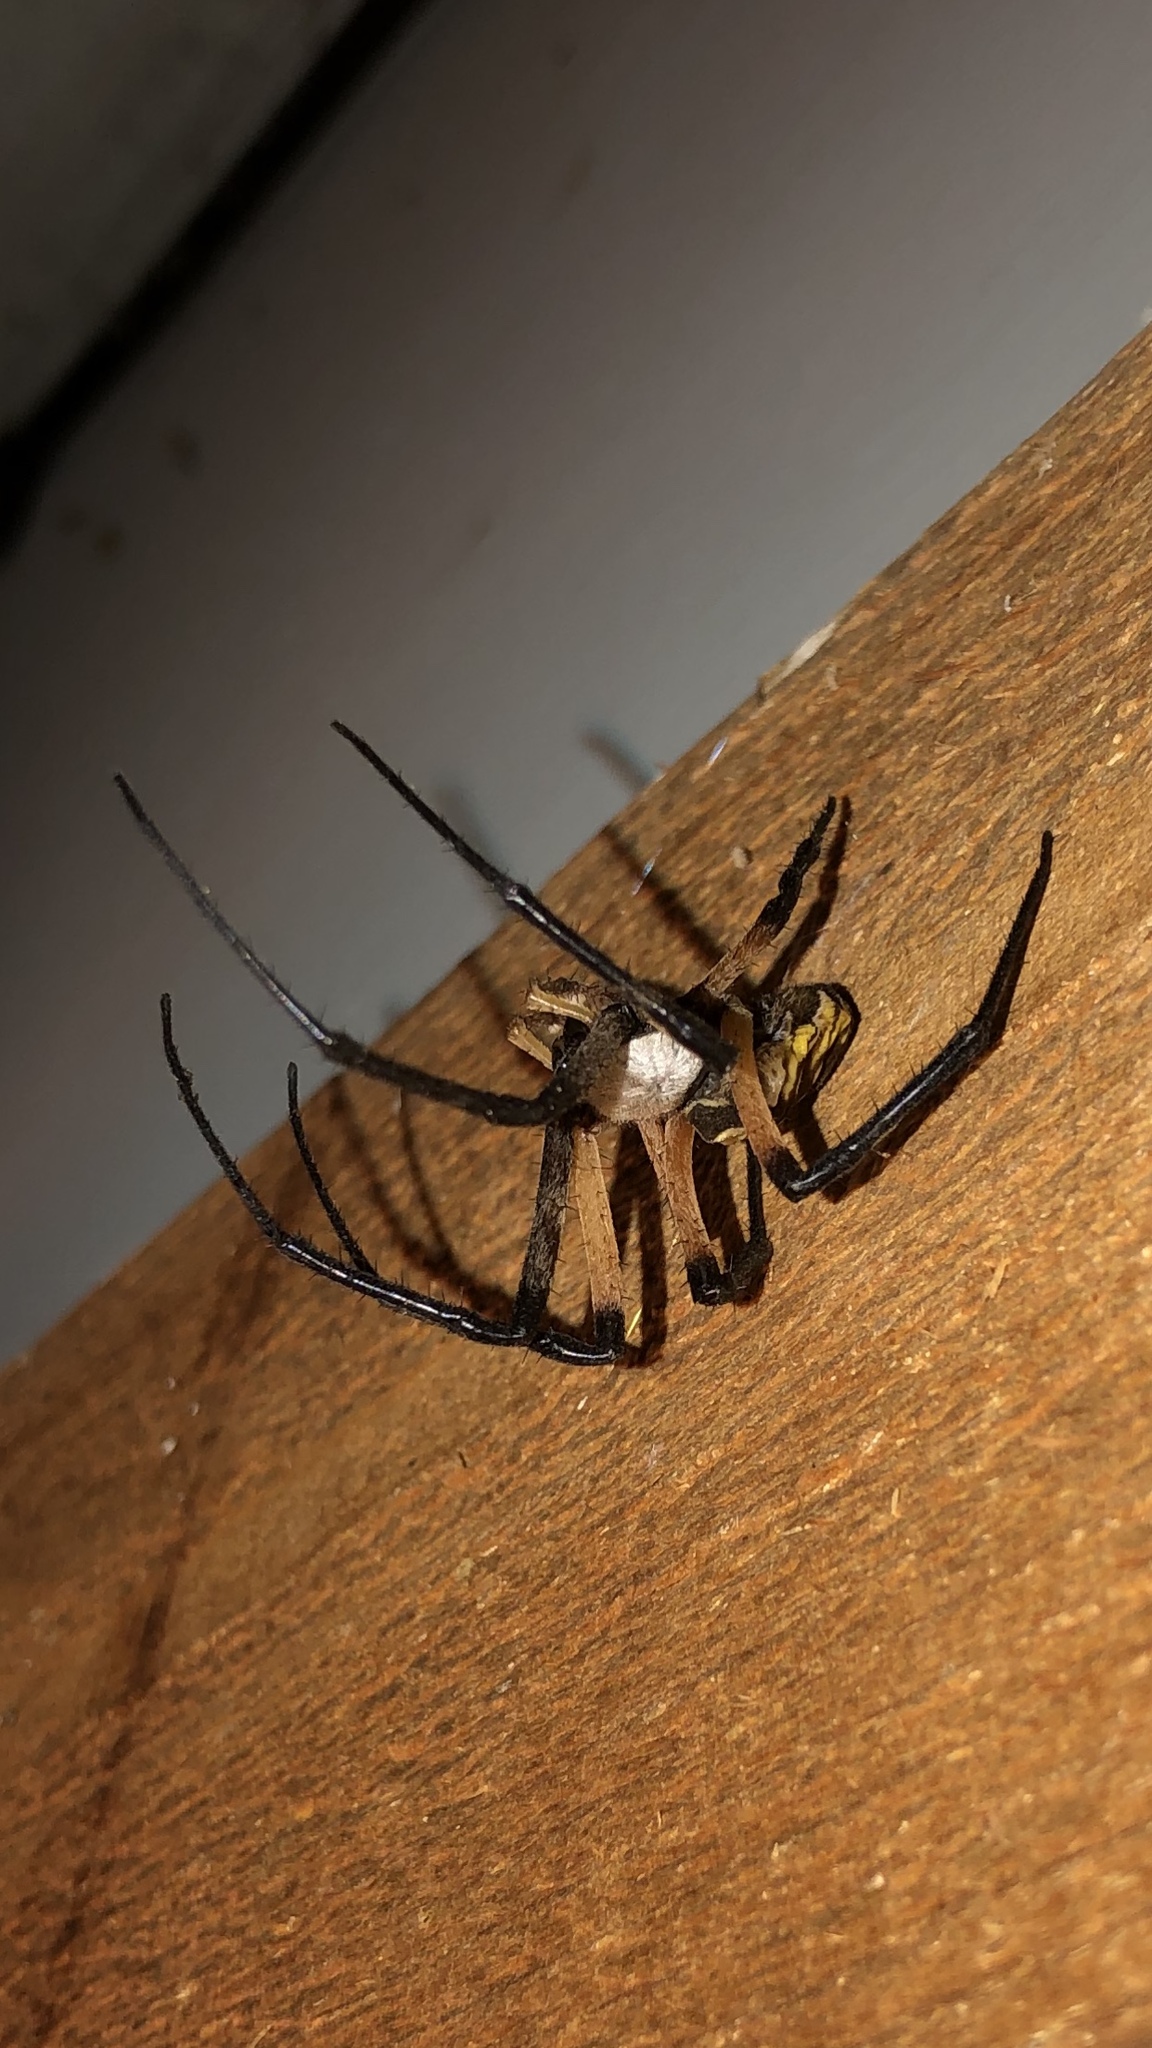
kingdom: Animalia
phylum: Arthropoda
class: Arachnida
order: Araneae
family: Araneidae
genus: Argiope
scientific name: Argiope aurantia
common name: Orb weavers
